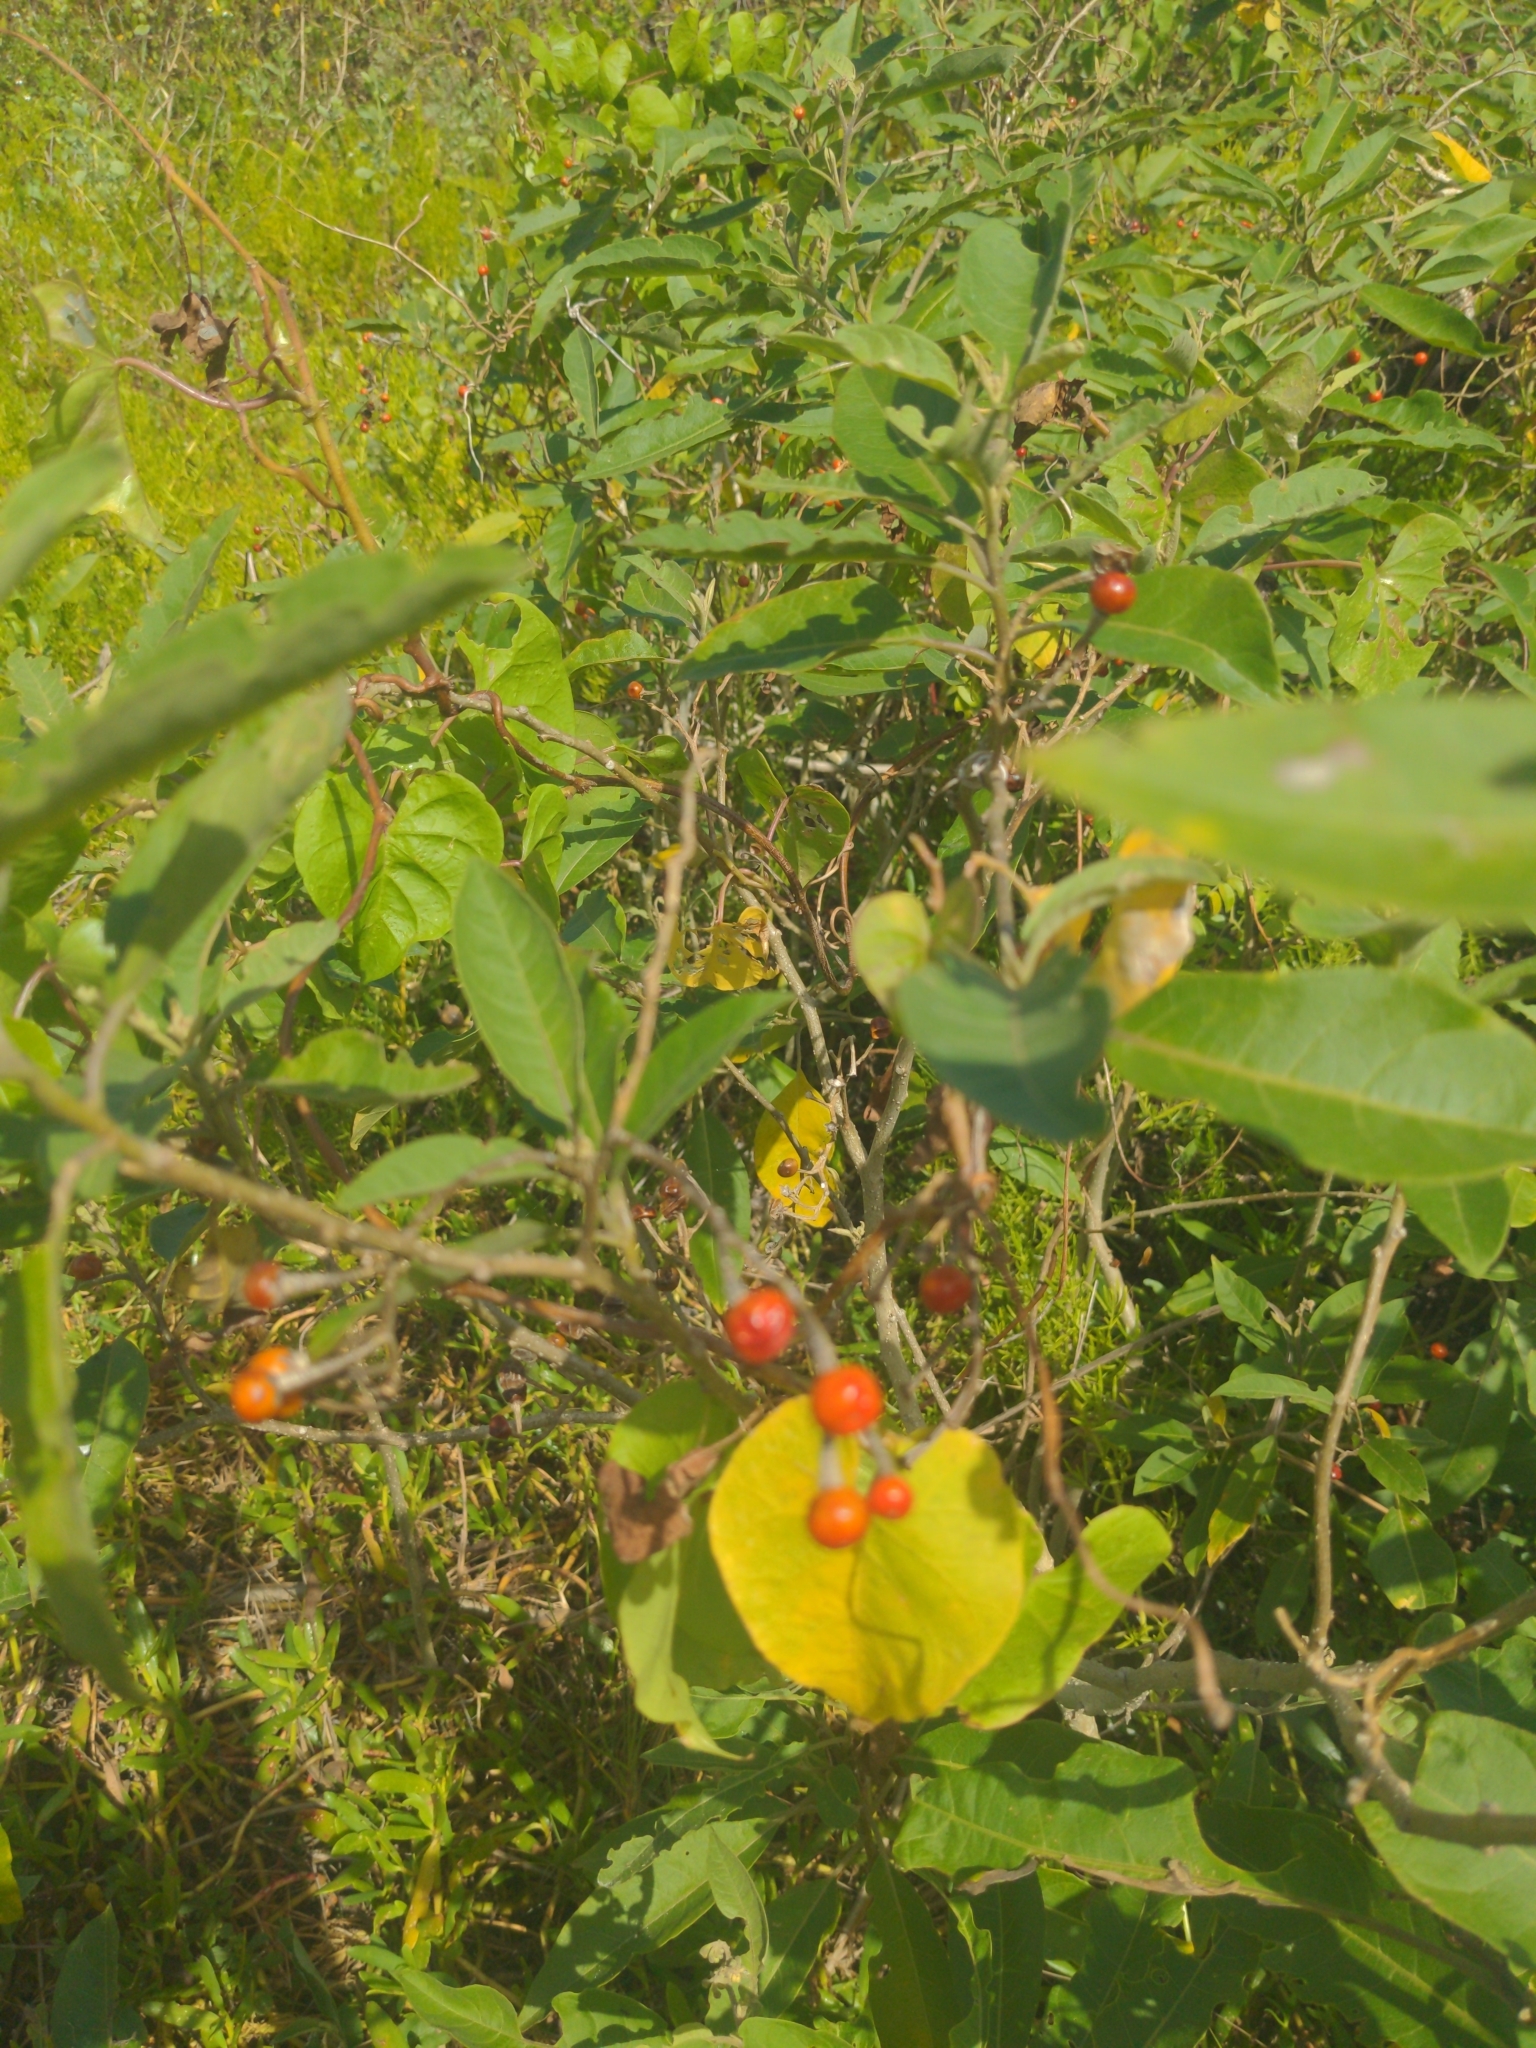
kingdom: Plantae
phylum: Tracheophyta
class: Magnoliopsida
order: Solanales
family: Solanaceae
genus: Solanum
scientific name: Solanum donianum
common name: Mullein nightshade
